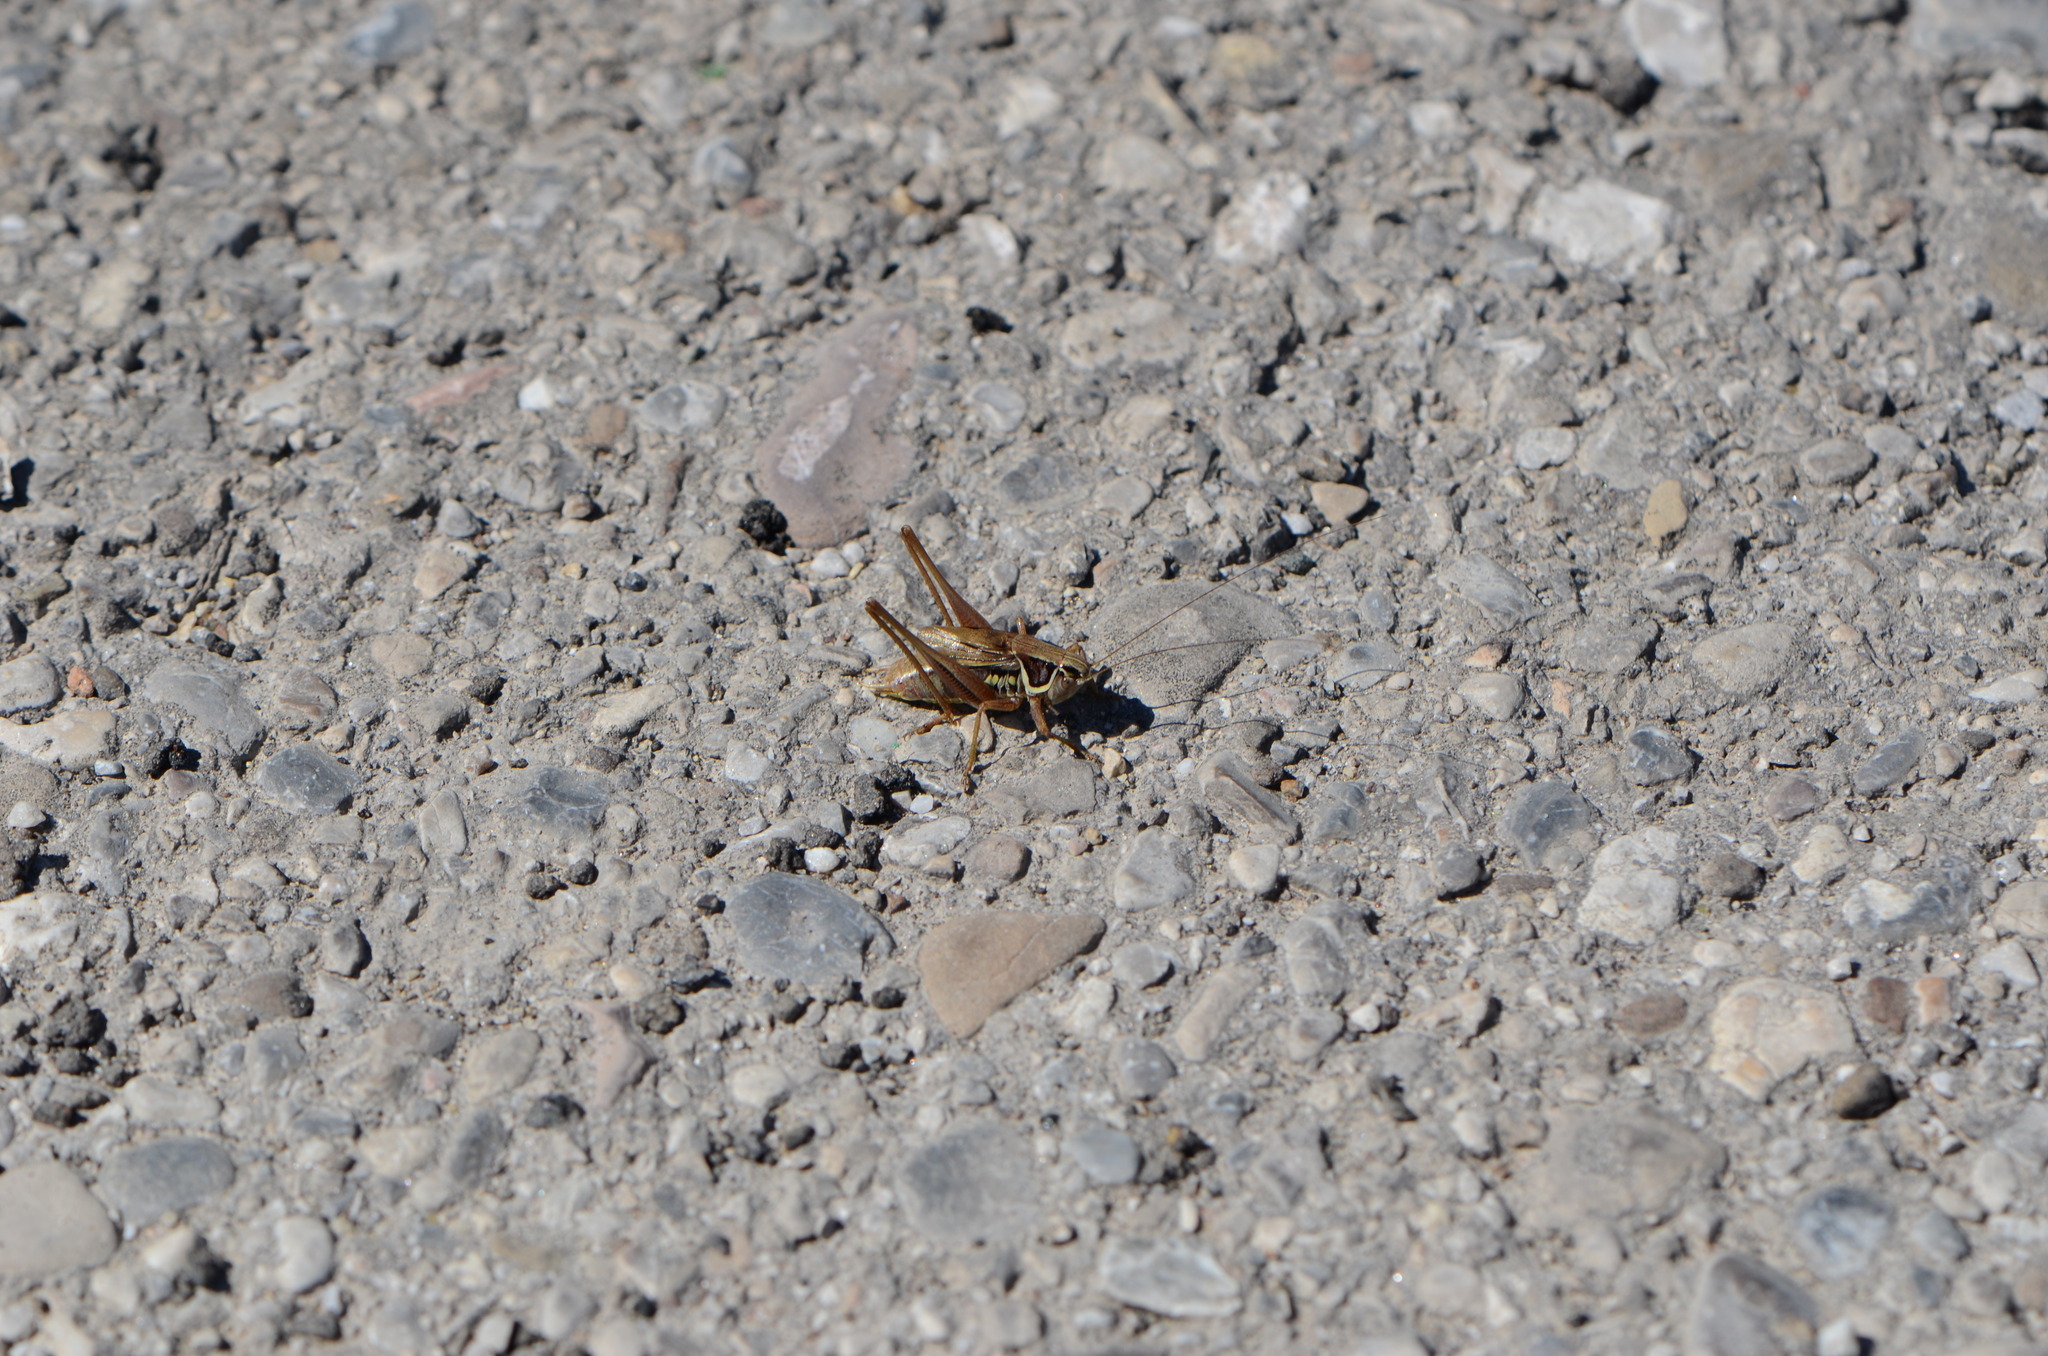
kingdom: Animalia
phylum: Arthropoda
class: Insecta
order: Orthoptera
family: Tettigoniidae
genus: Roeseliana
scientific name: Roeseliana roeselii
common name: Roesel's bush cricket
